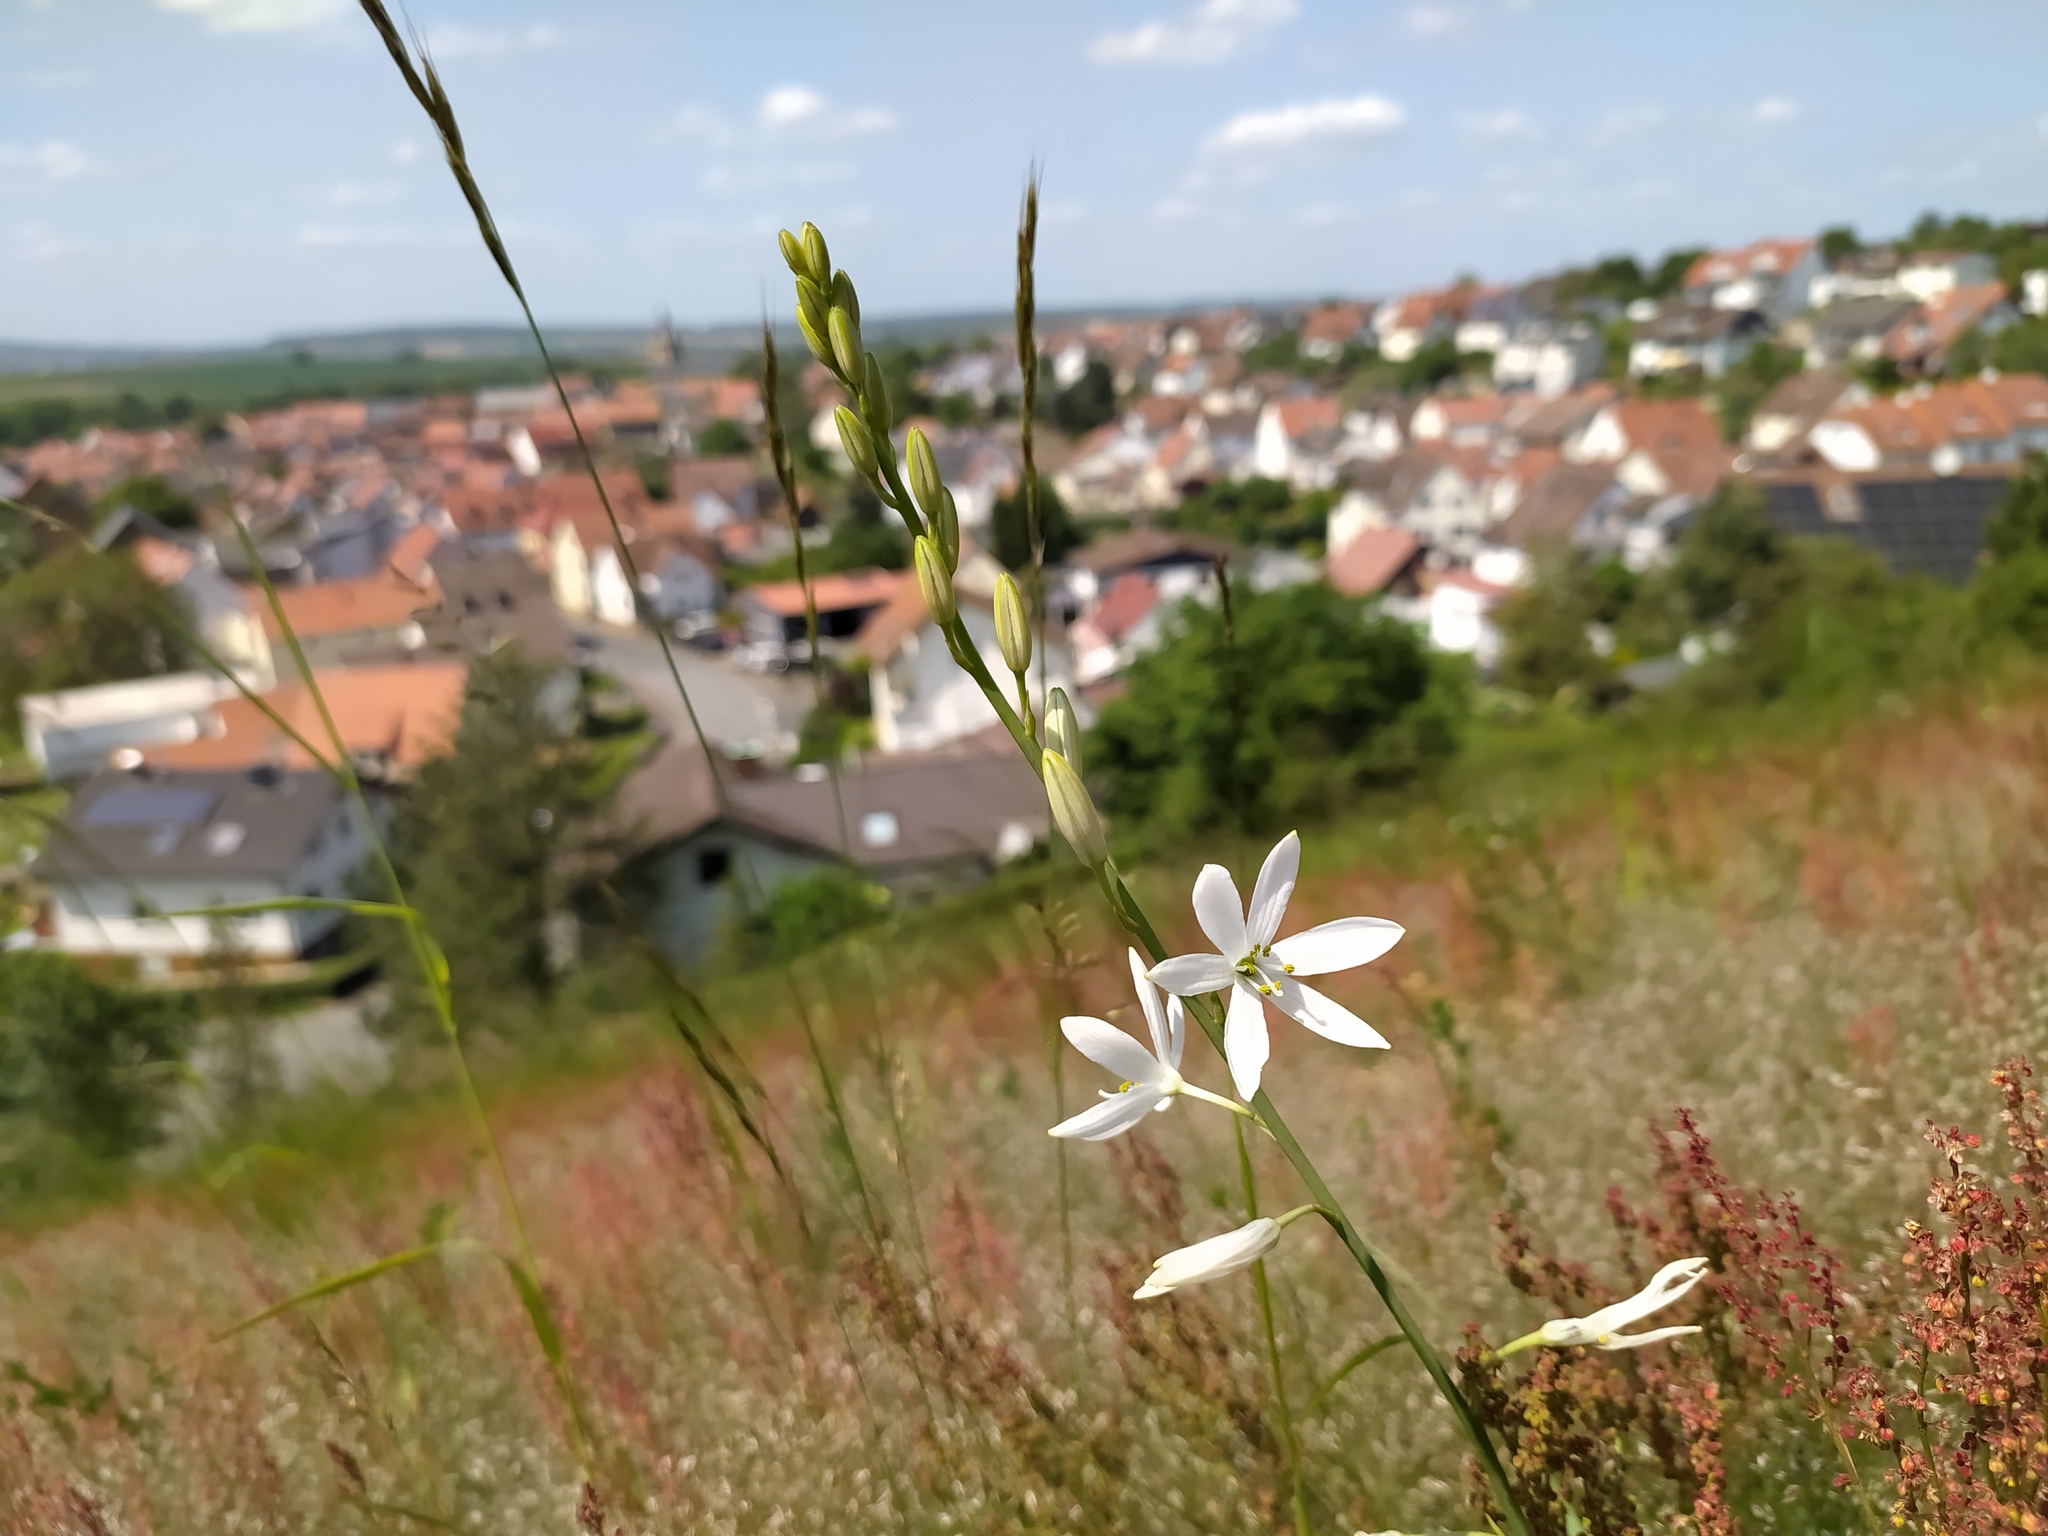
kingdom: Plantae
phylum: Tracheophyta
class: Liliopsida
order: Asparagales
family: Asparagaceae
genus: Anthericum
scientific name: Anthericum liliago
